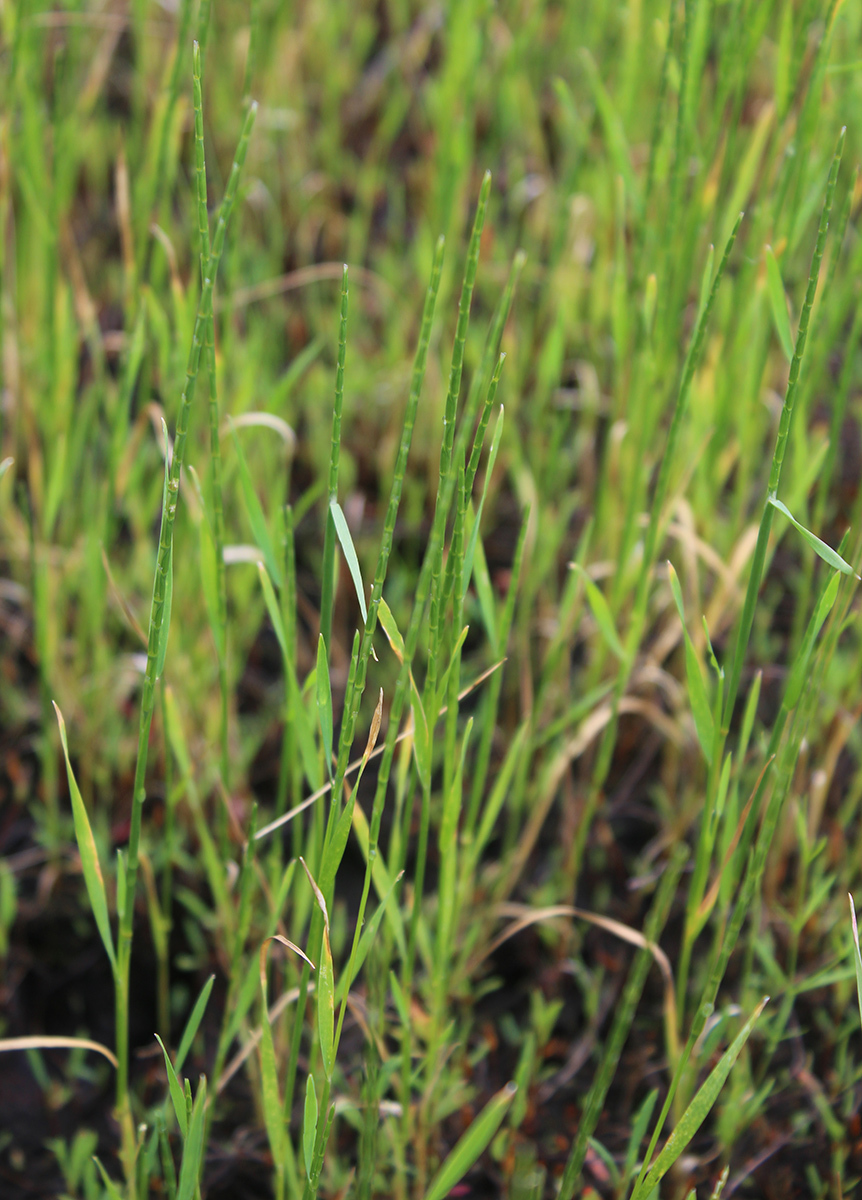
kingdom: Plantae
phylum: Tracheophyta
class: Liliopsida
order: Poales
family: Poaceae
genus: Pholiurus
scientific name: Pholiurus pannonicus
